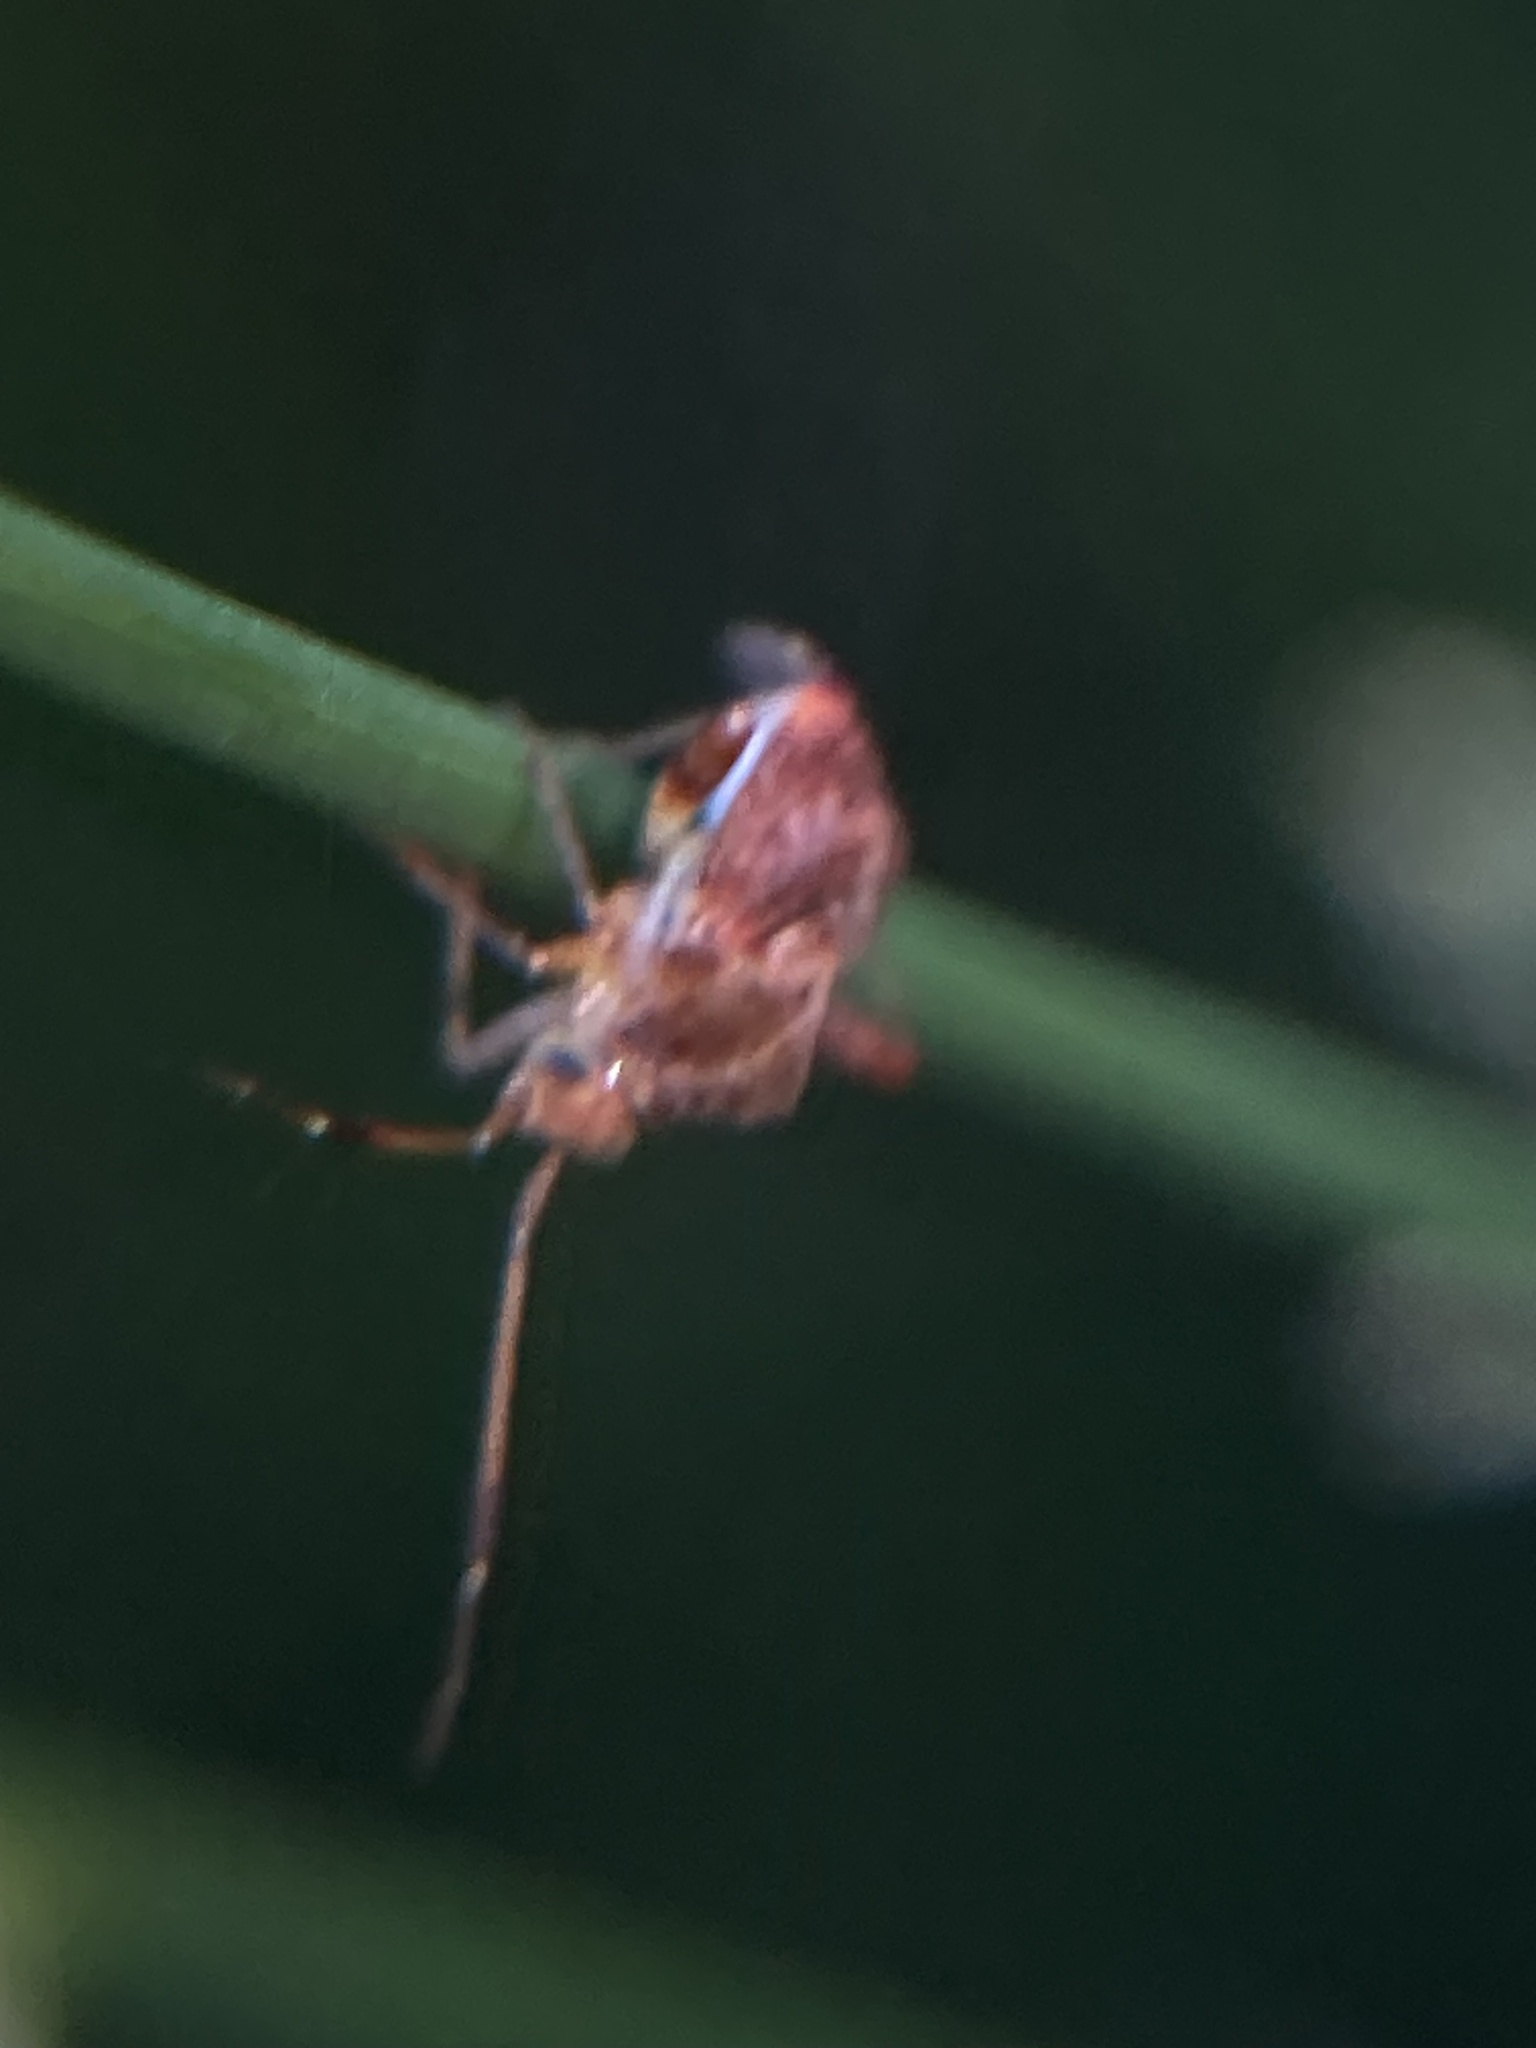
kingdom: Animalia
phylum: Arthropoda
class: Insecta
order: Hemiptera
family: Miridae
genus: Sidnia
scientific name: Sidnia kinbergi
